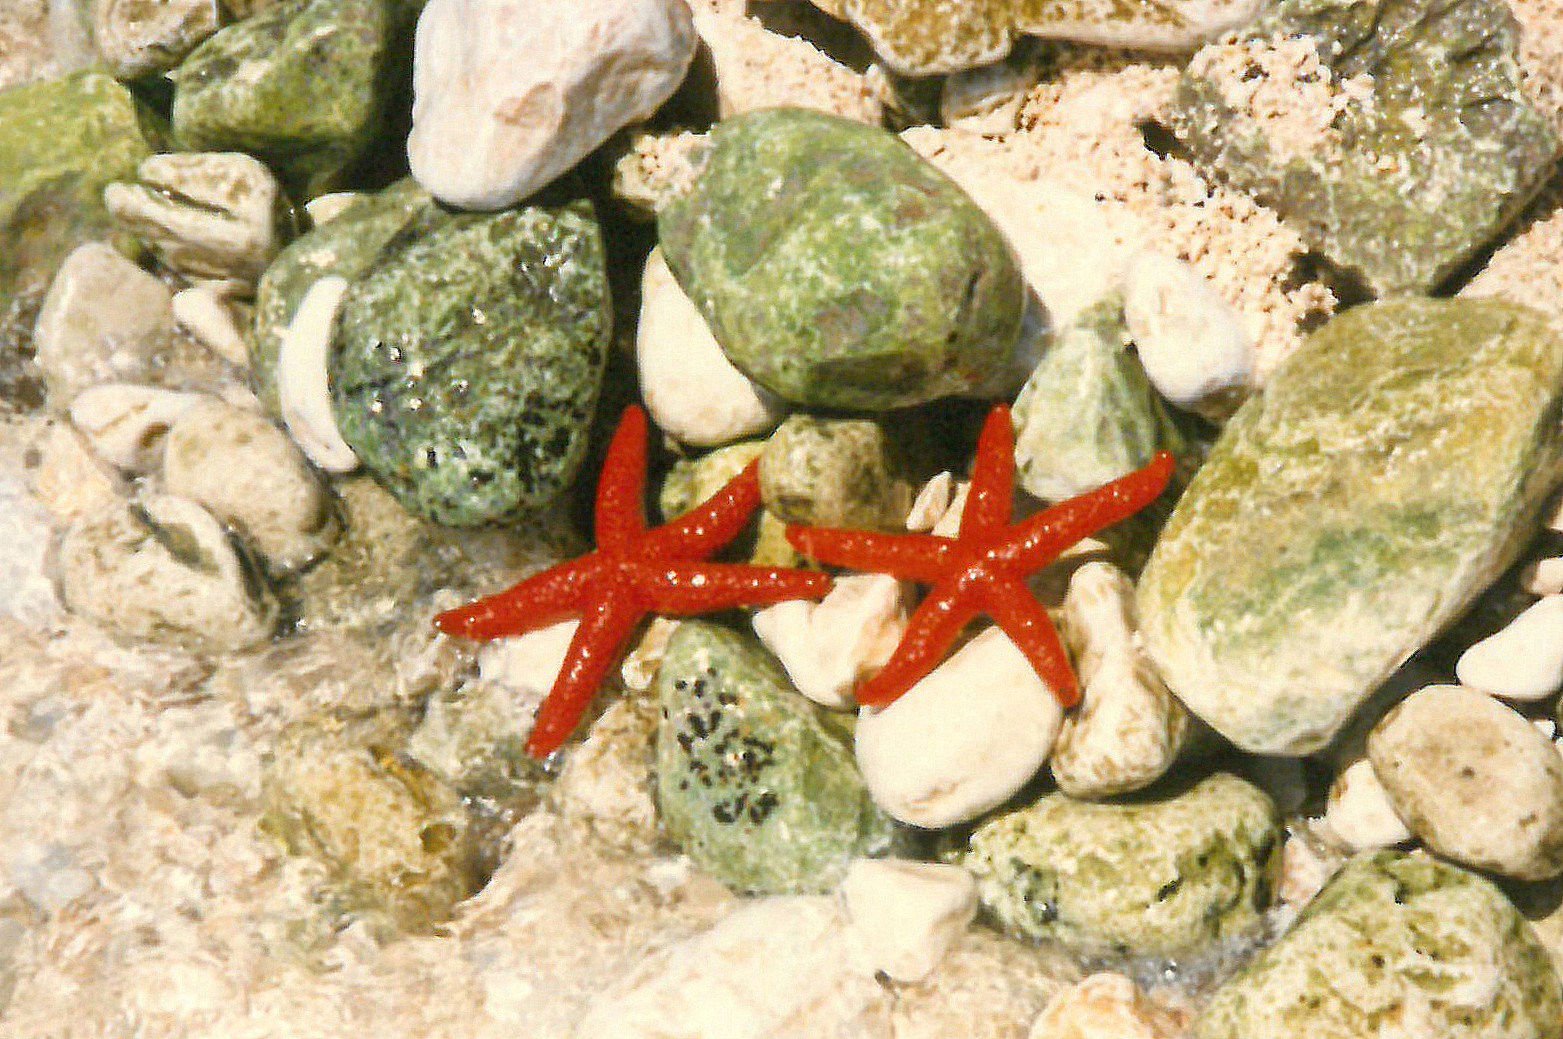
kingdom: Animalia
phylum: Echinodermata
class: Asteroidea
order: Spinulosida
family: Echinasteridae
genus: Echinaster
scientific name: Echinaster sepositus
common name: Red starfish
